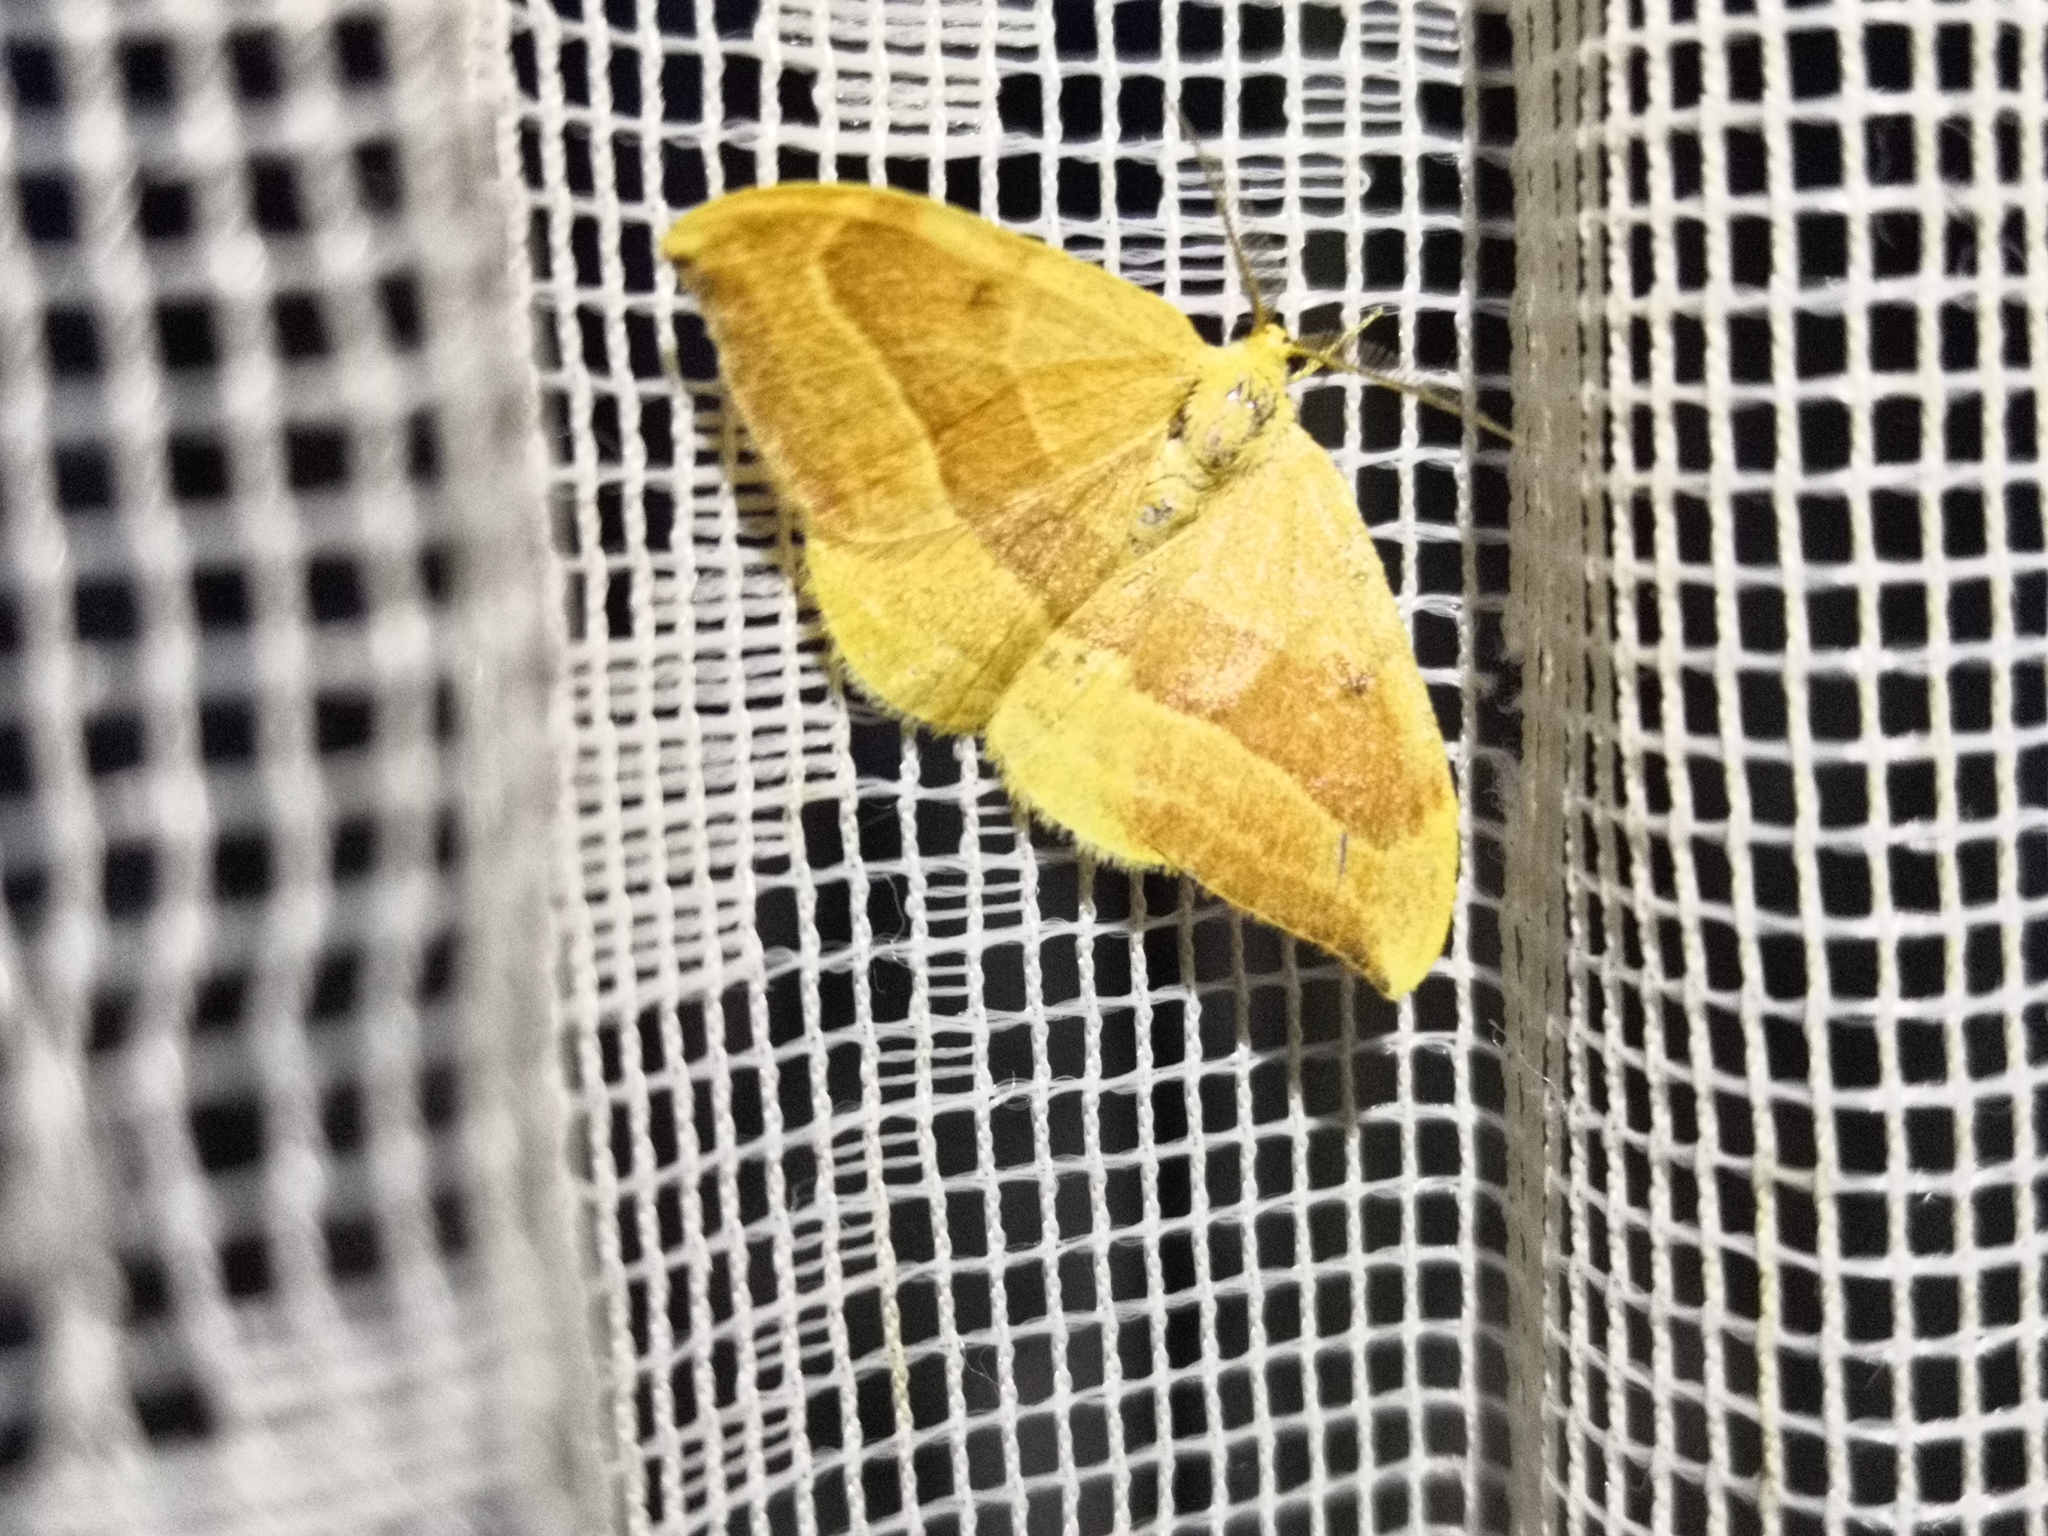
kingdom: Animalia
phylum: Arthropoda
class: Insecta
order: Lepidoptera
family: Drepanidae
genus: Watsonalla
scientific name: Watsonalla cultraria
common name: Barred hook-tip
